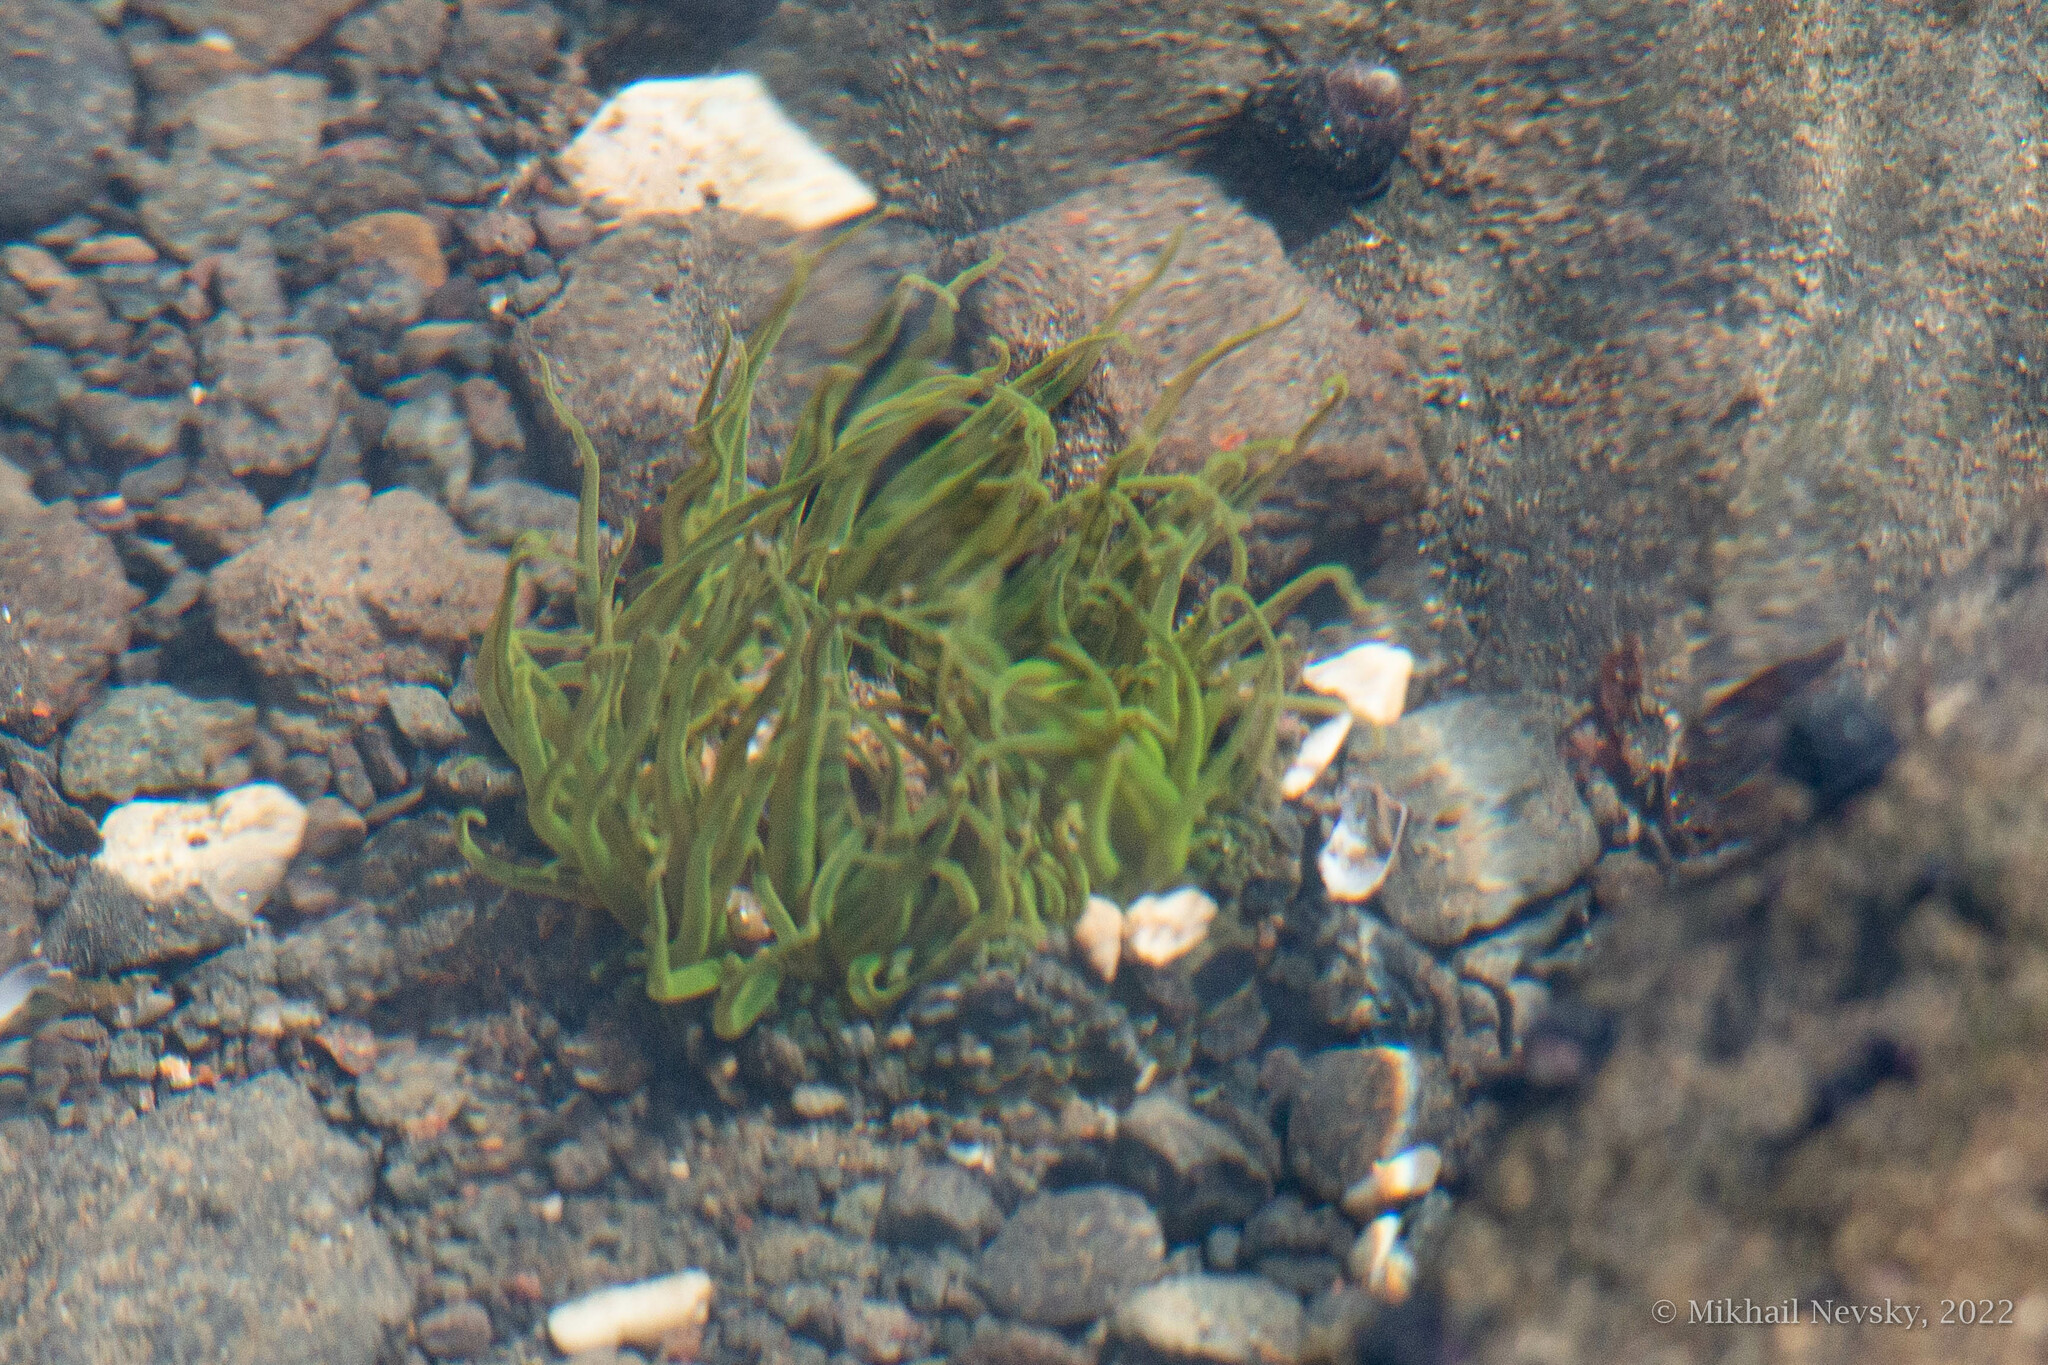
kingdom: Animalia
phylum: Cnidaria
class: Anthozoa
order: Actiniaria
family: Actiniidae
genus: Oulactis
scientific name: Oulactis orientalis
